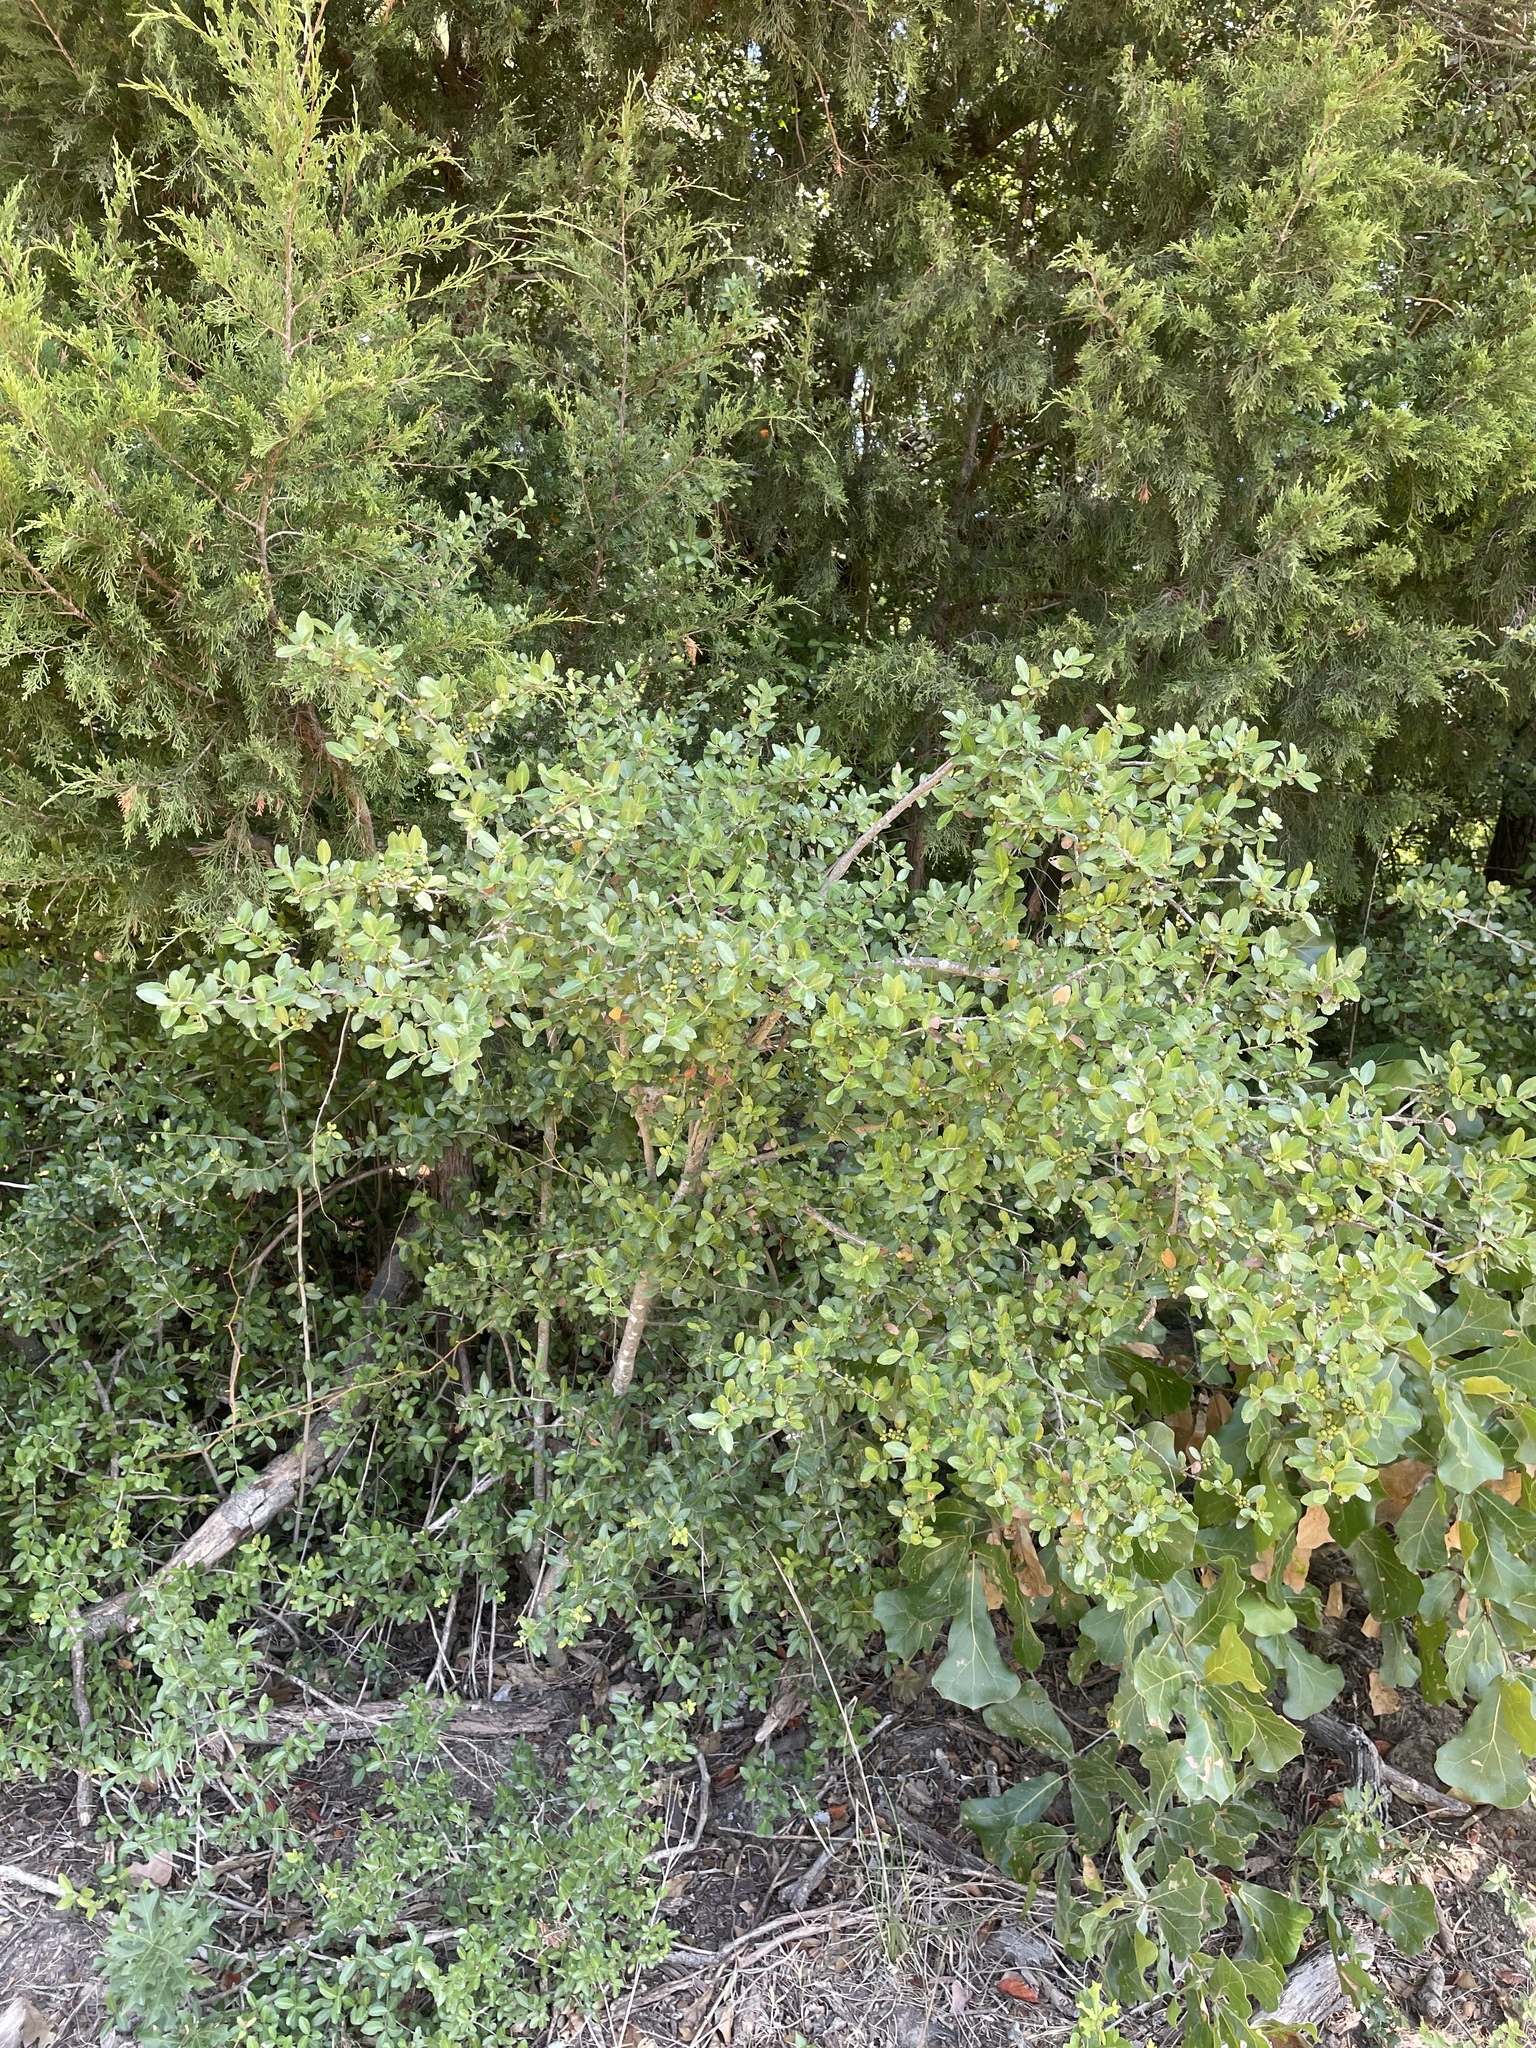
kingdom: Plantae
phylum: Tracheophyta
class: Magnoliopsida
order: Aquifoliales
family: Aquifoliaceae
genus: Ilex
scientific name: Ilex vomitoria
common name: Yaupon holly
